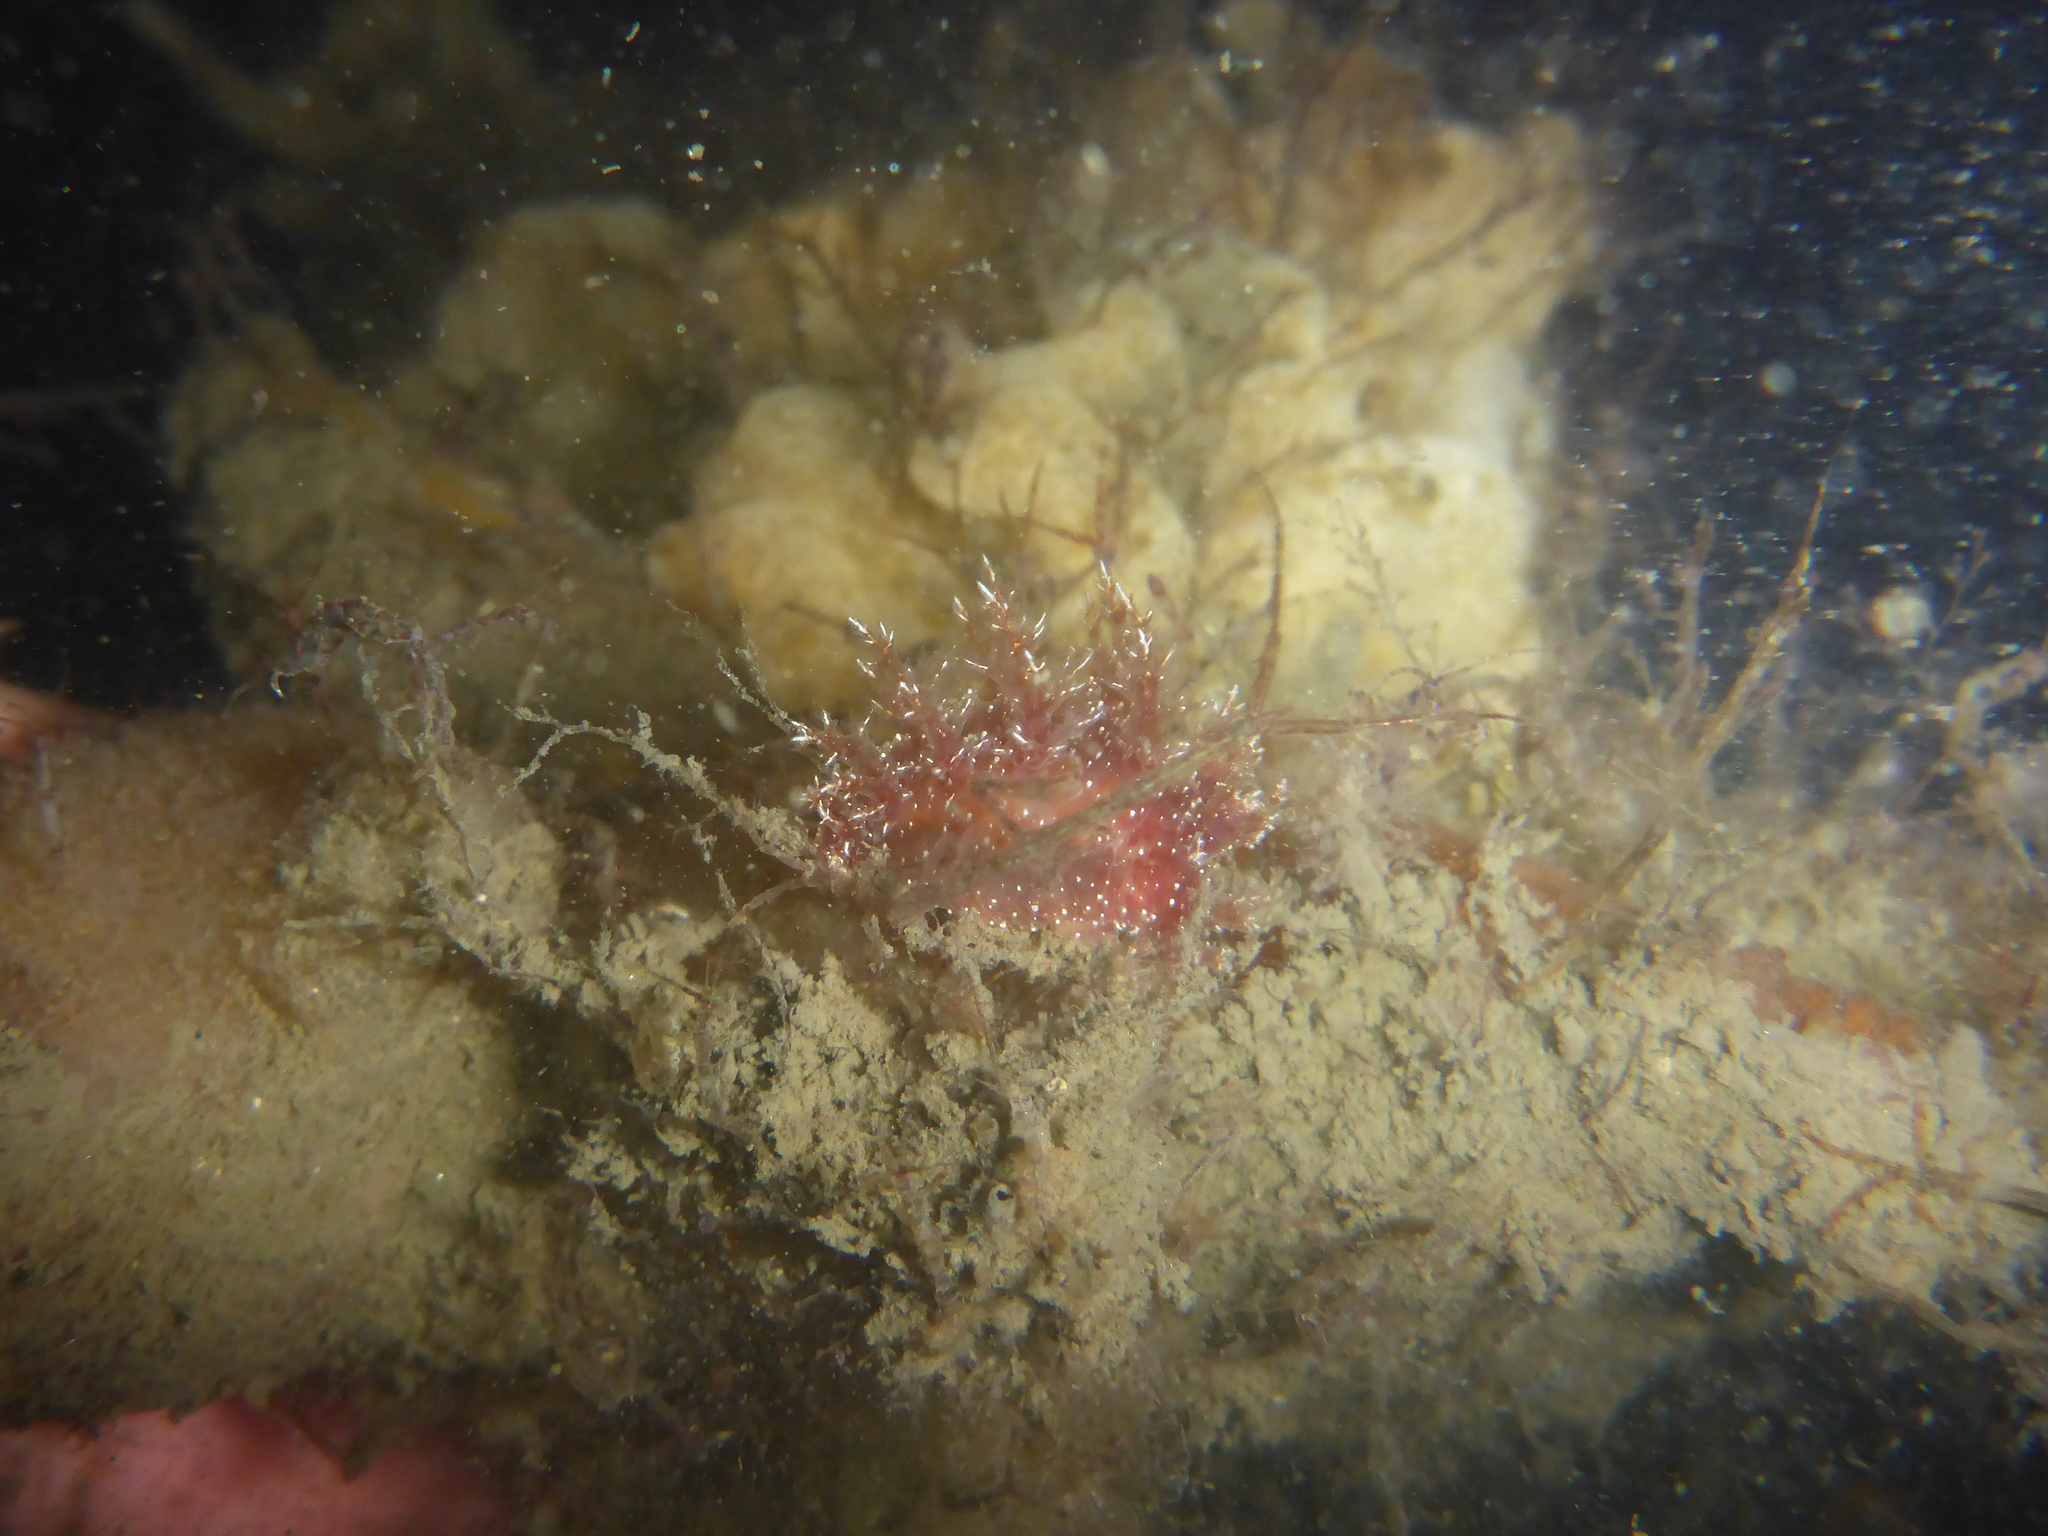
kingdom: Animalia
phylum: Mollusca
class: Gastropoda
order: Nudibranchia
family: Dendronotidae
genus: Dendronotus
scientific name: Dendronotus venustus
